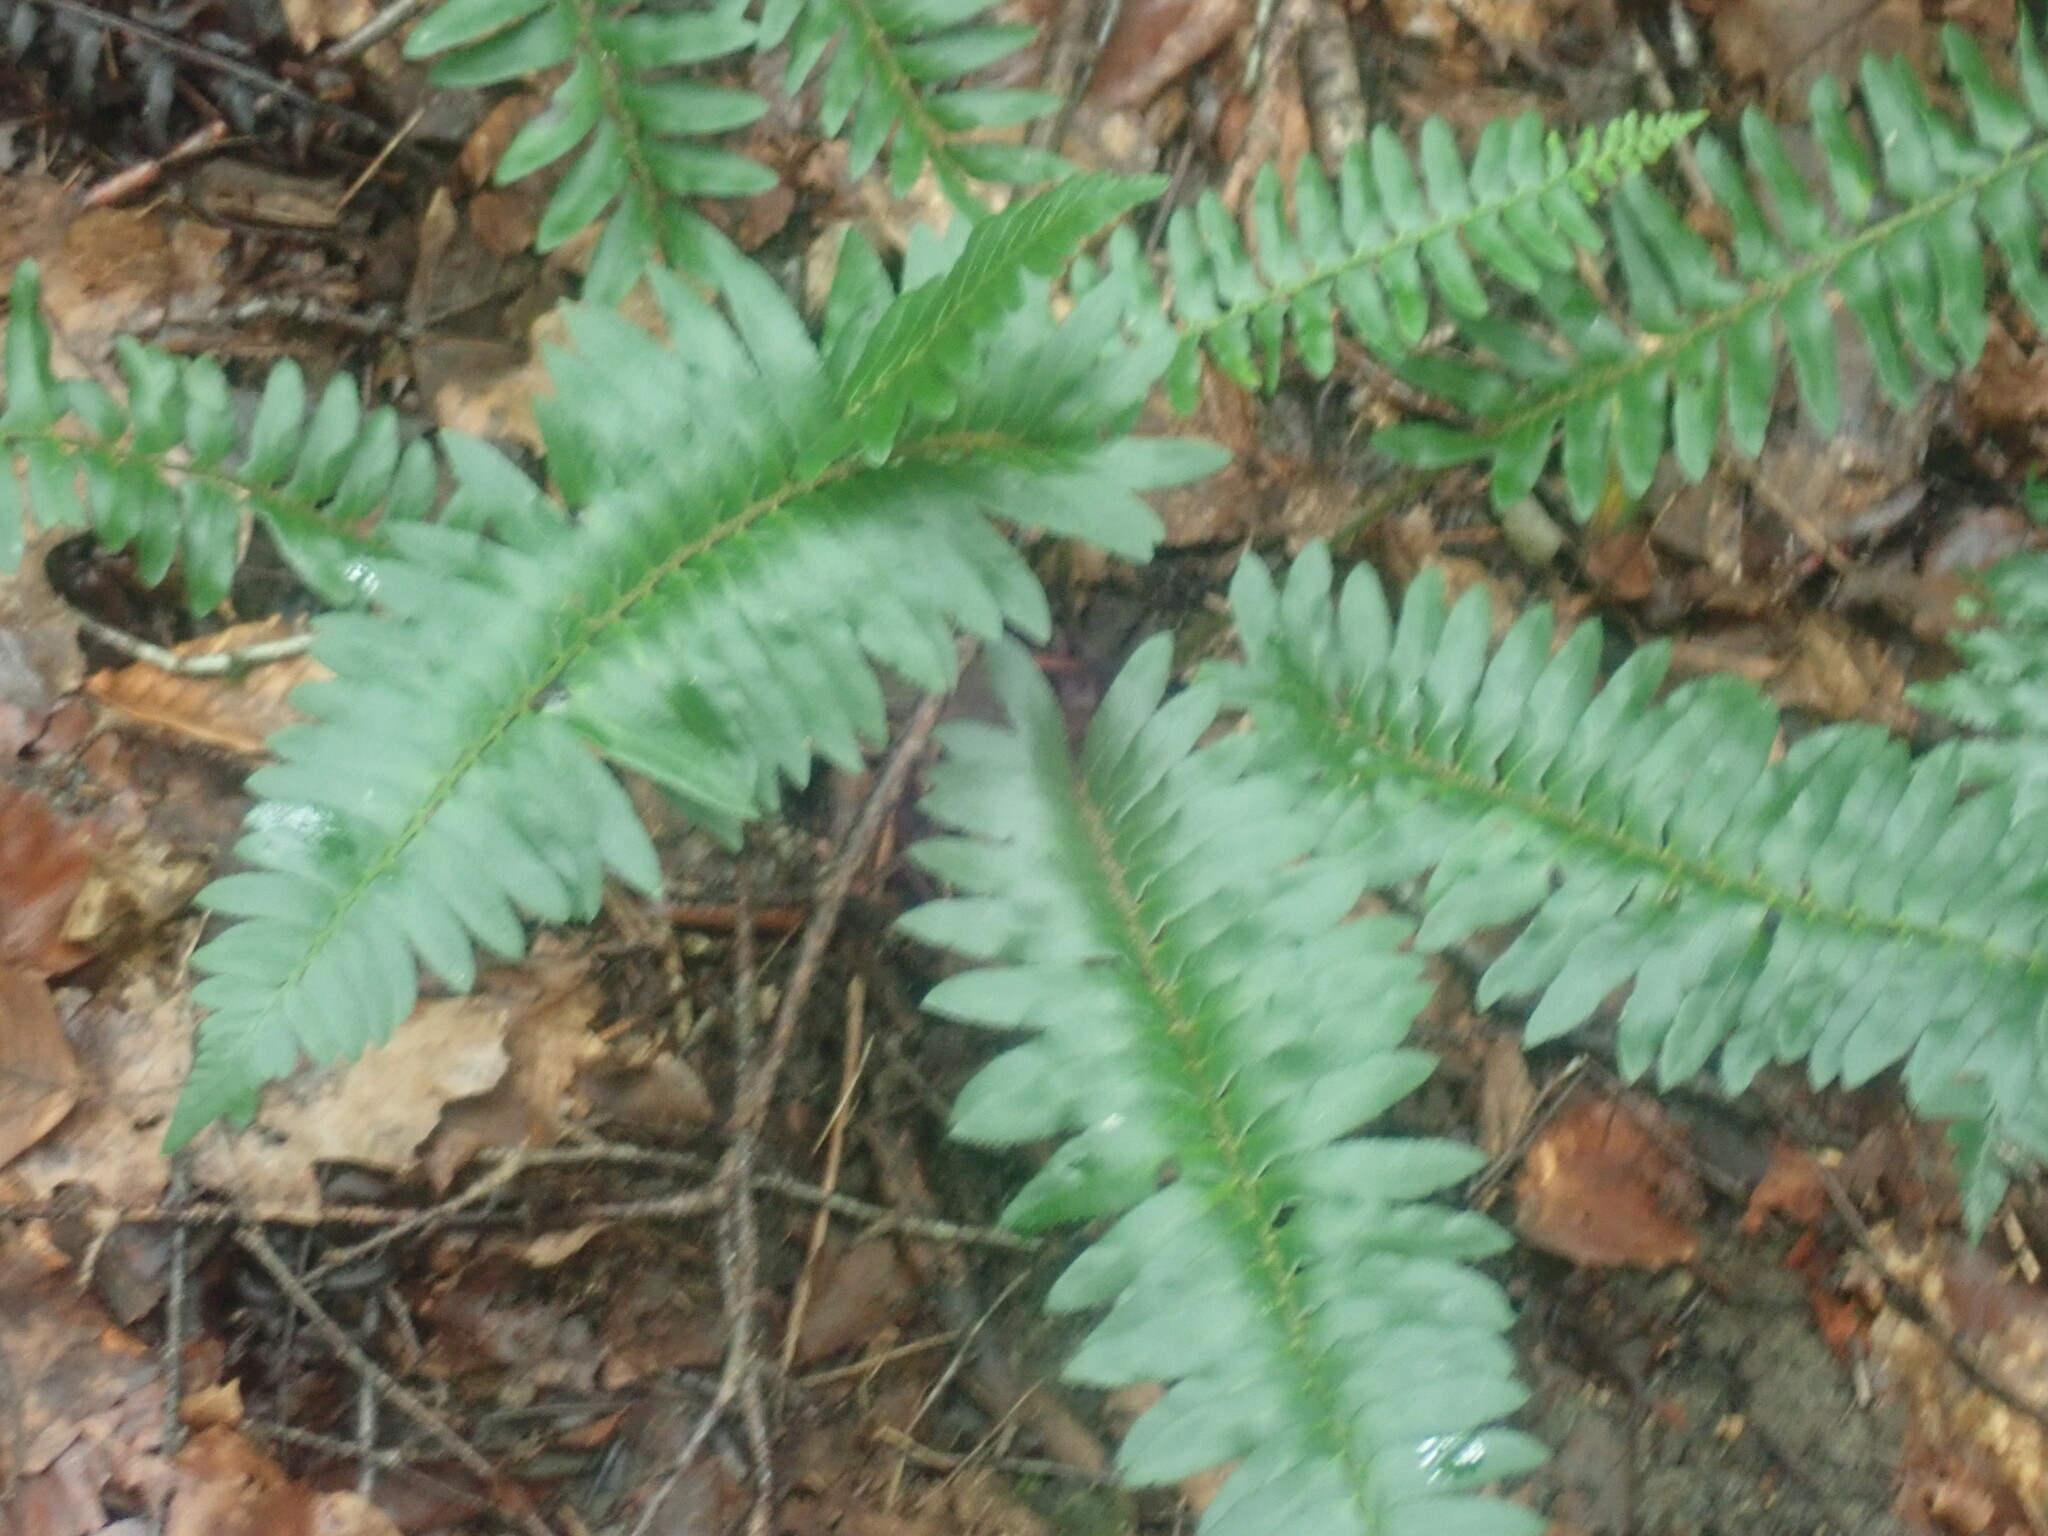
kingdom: Plantae
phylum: Tracheophyta
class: Polypodiopsida
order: Polypodiales
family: Dryopteridaceae
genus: Polystichum
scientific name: Polystichum acrostichoides
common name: Christmas fern
